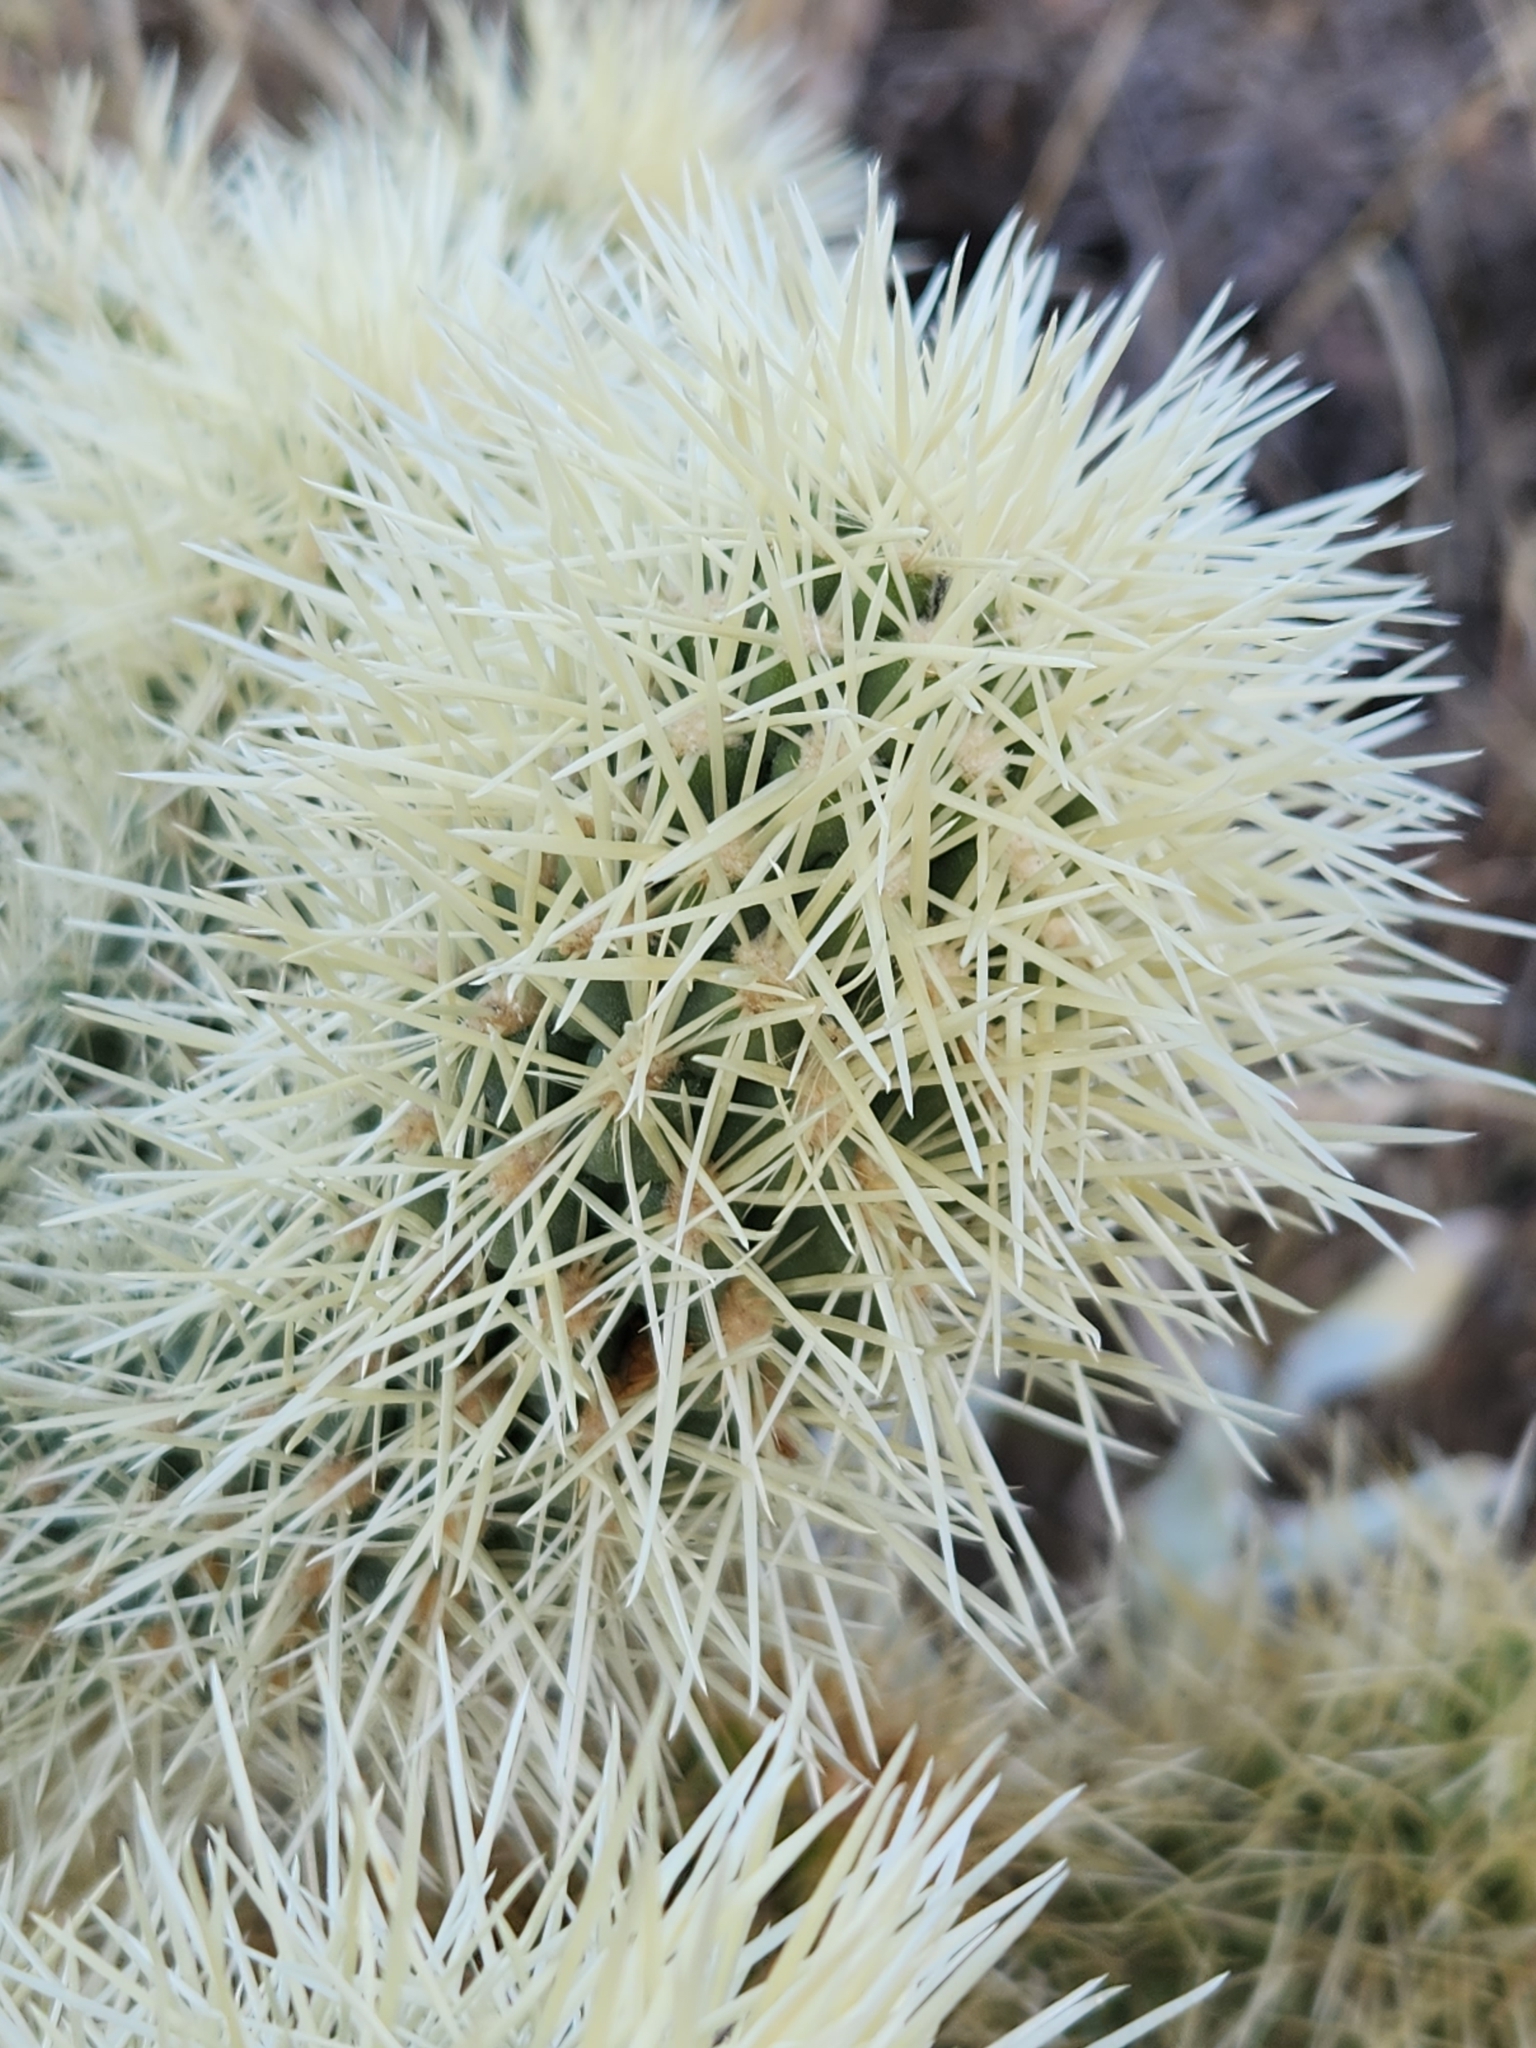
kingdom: Plantae
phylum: Tracheophyta
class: Magnoliopsida
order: Caryophyllales
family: Cactaceae
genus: Cylindropuntia
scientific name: Cylindropuntia fosbergii
